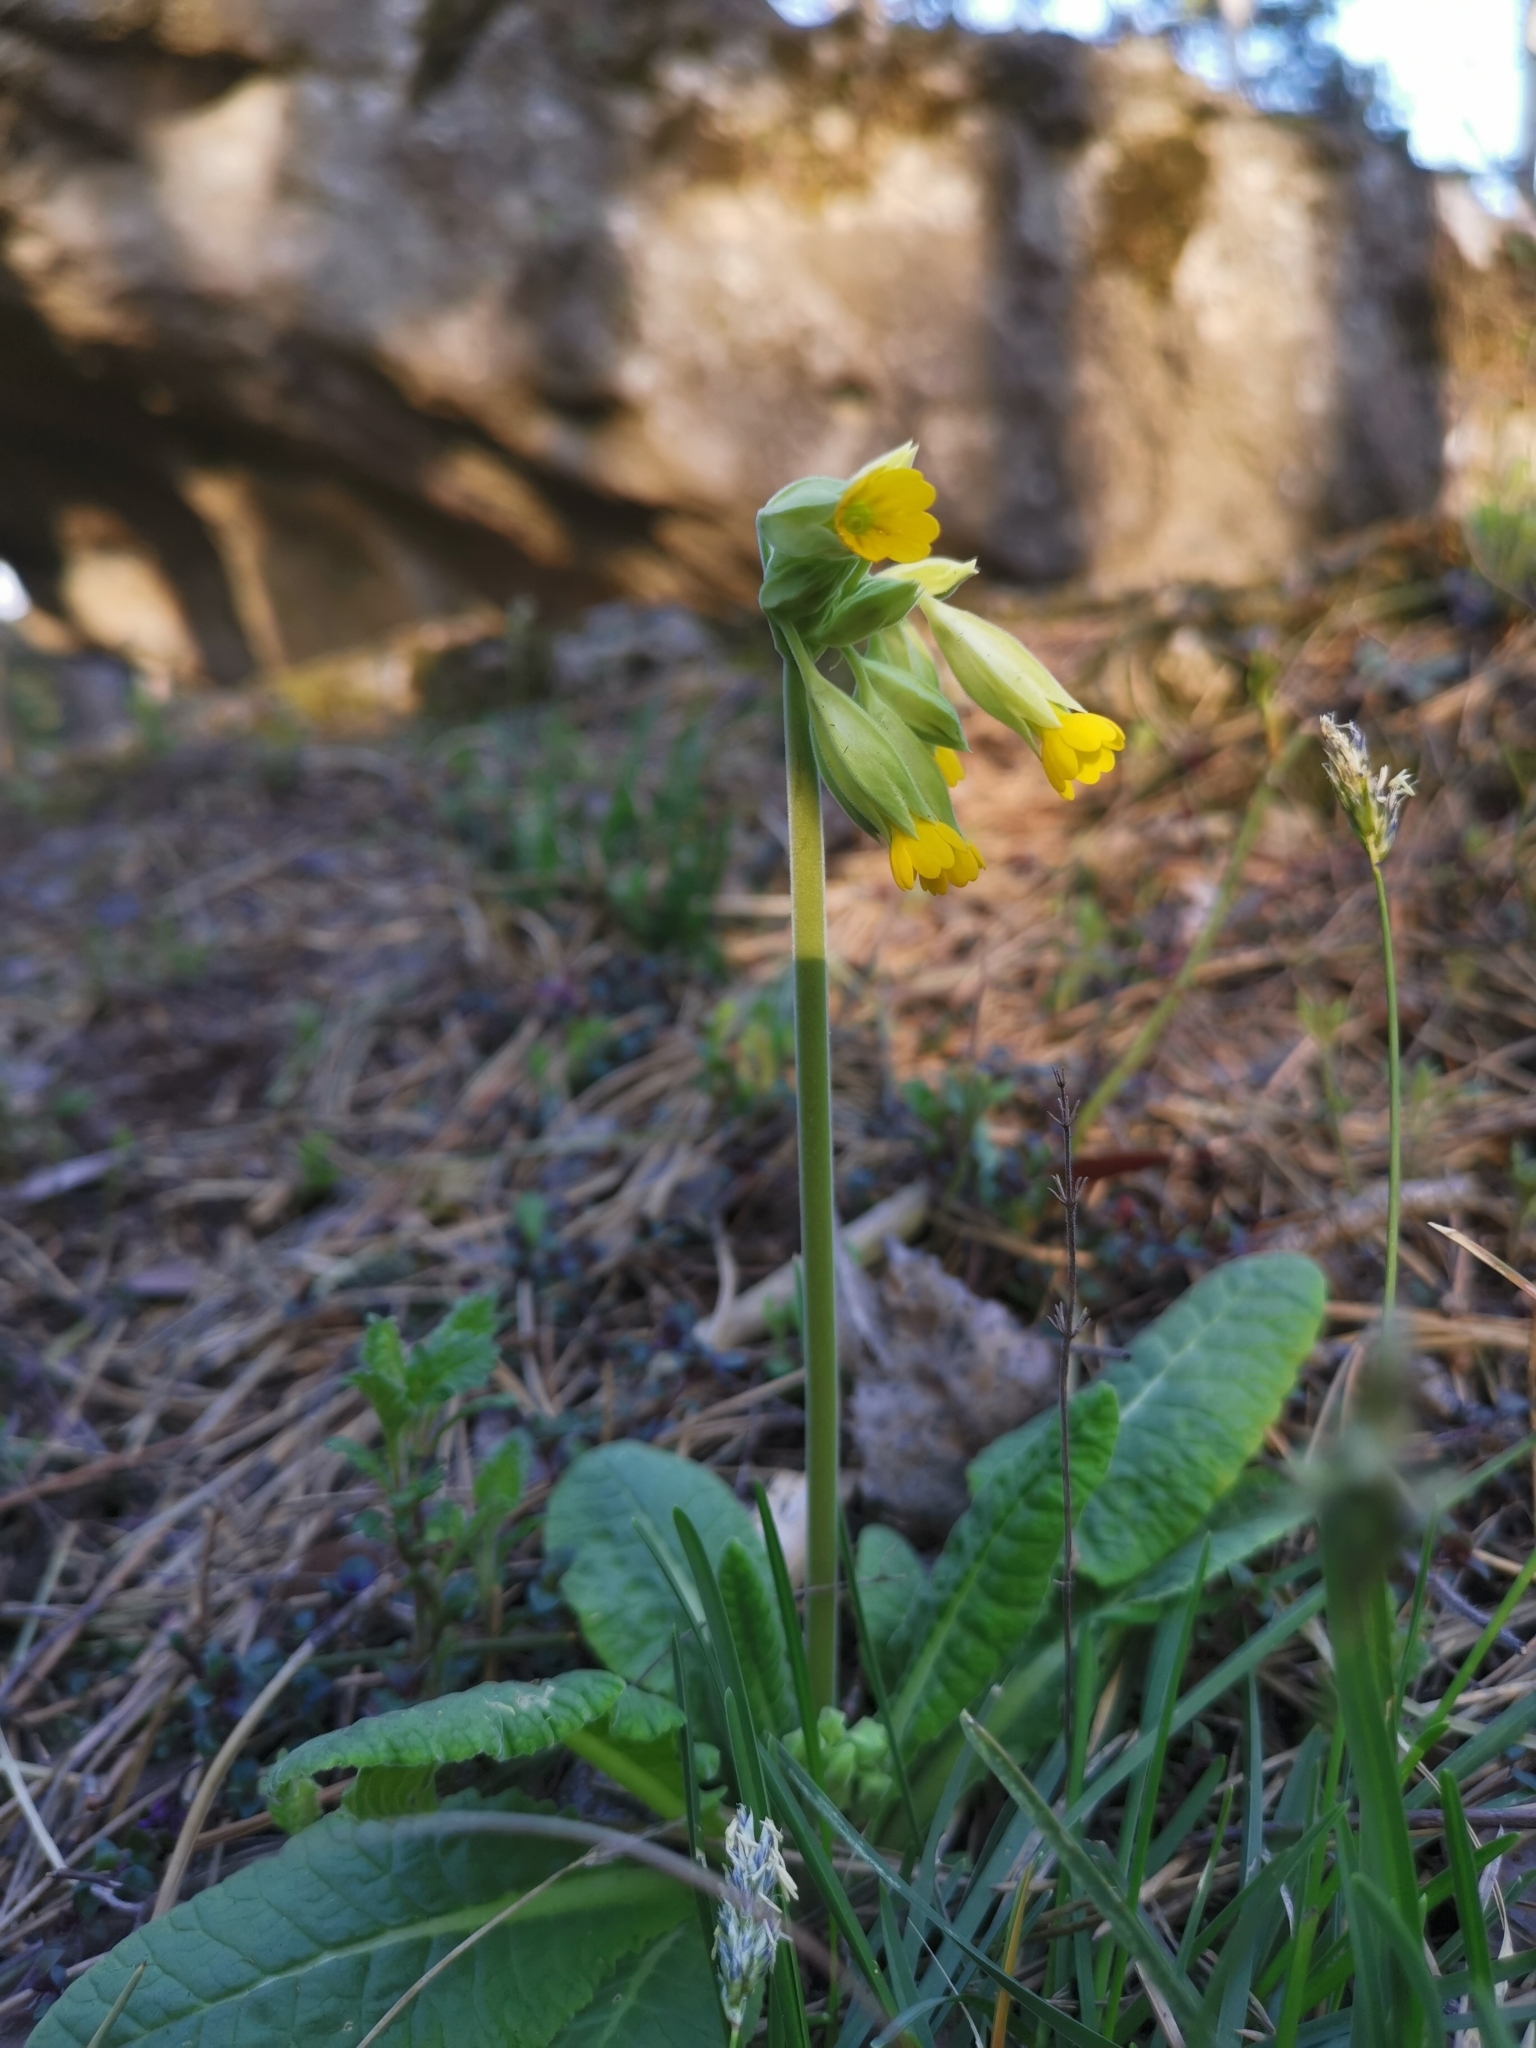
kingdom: Plantae
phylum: Tracheophyta
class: Magnoliopsida
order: Ericales
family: Primulaceae
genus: Primula
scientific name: Primula veris
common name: Cowslip
